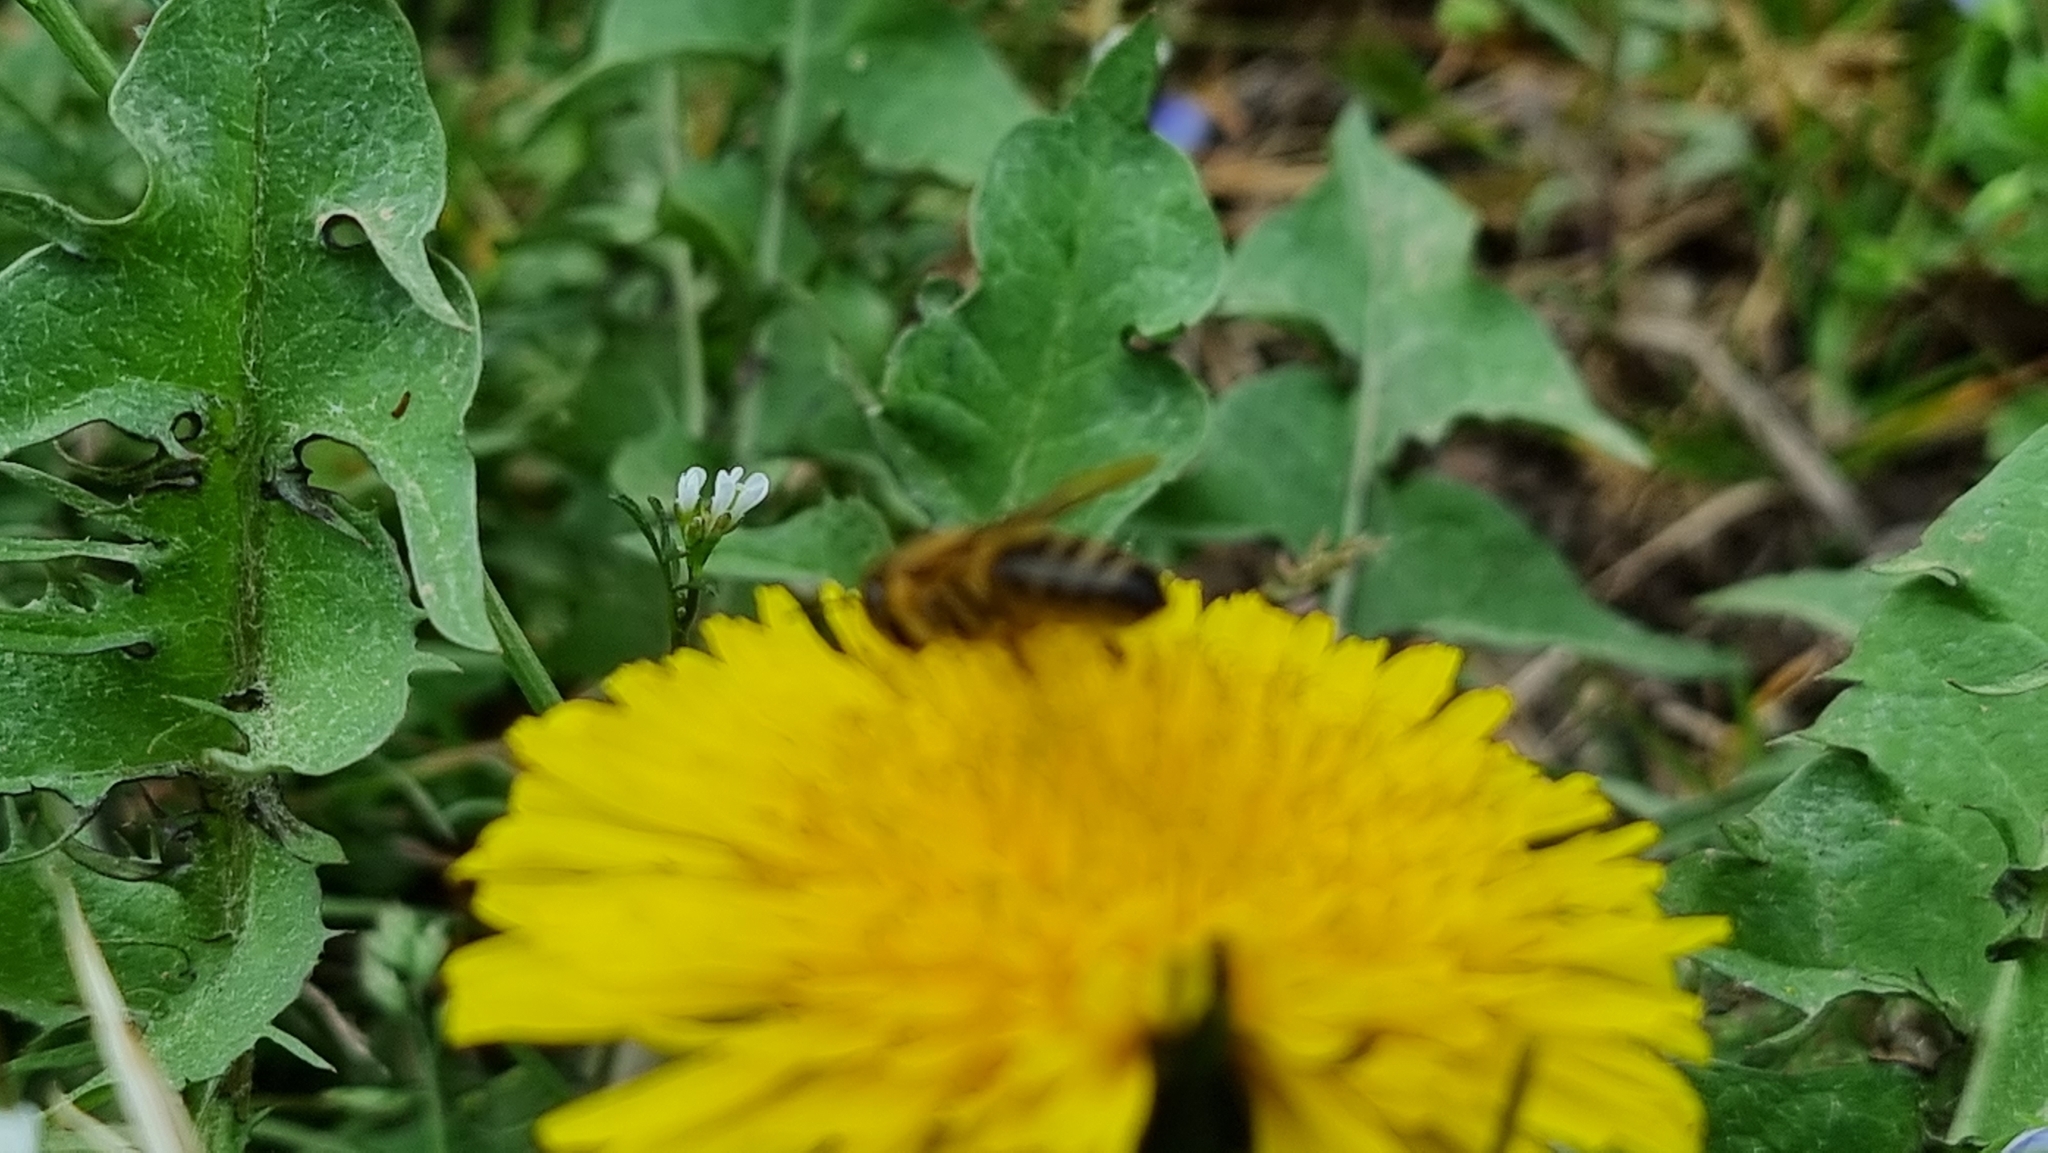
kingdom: Animalia
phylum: Arthropoda
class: Insecta
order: Hymenoptera
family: Apidae
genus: Apis
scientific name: Apis mellifera
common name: Honey bee
